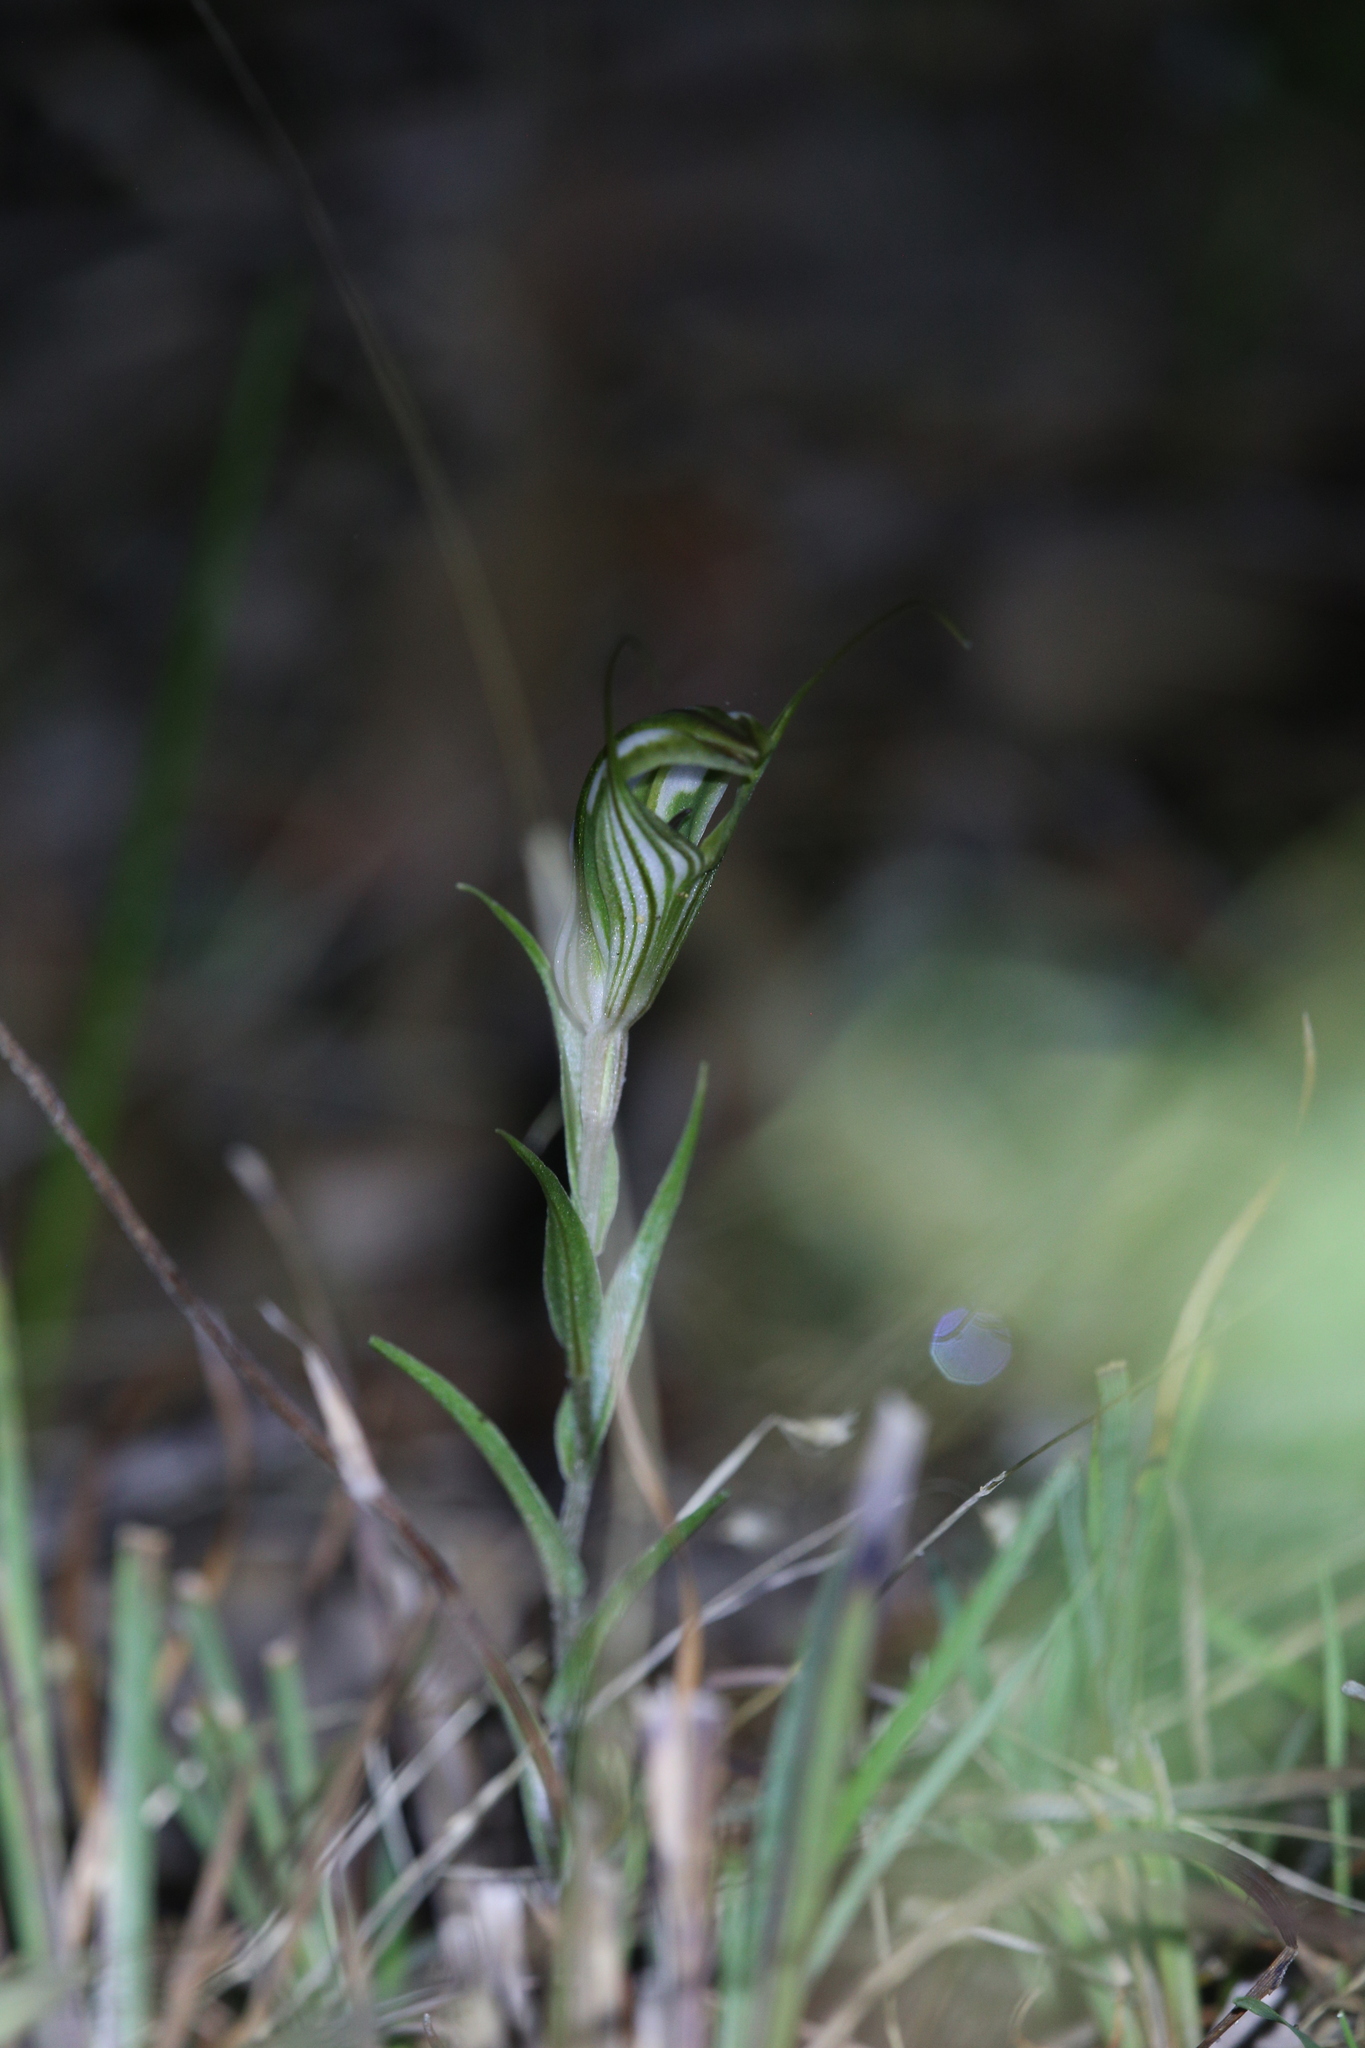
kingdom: Plantae
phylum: Tracheophyta
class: Liliopsida
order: Asparagales
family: Orchidaceae
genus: Pterostylis
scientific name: Pterostylis aspera
